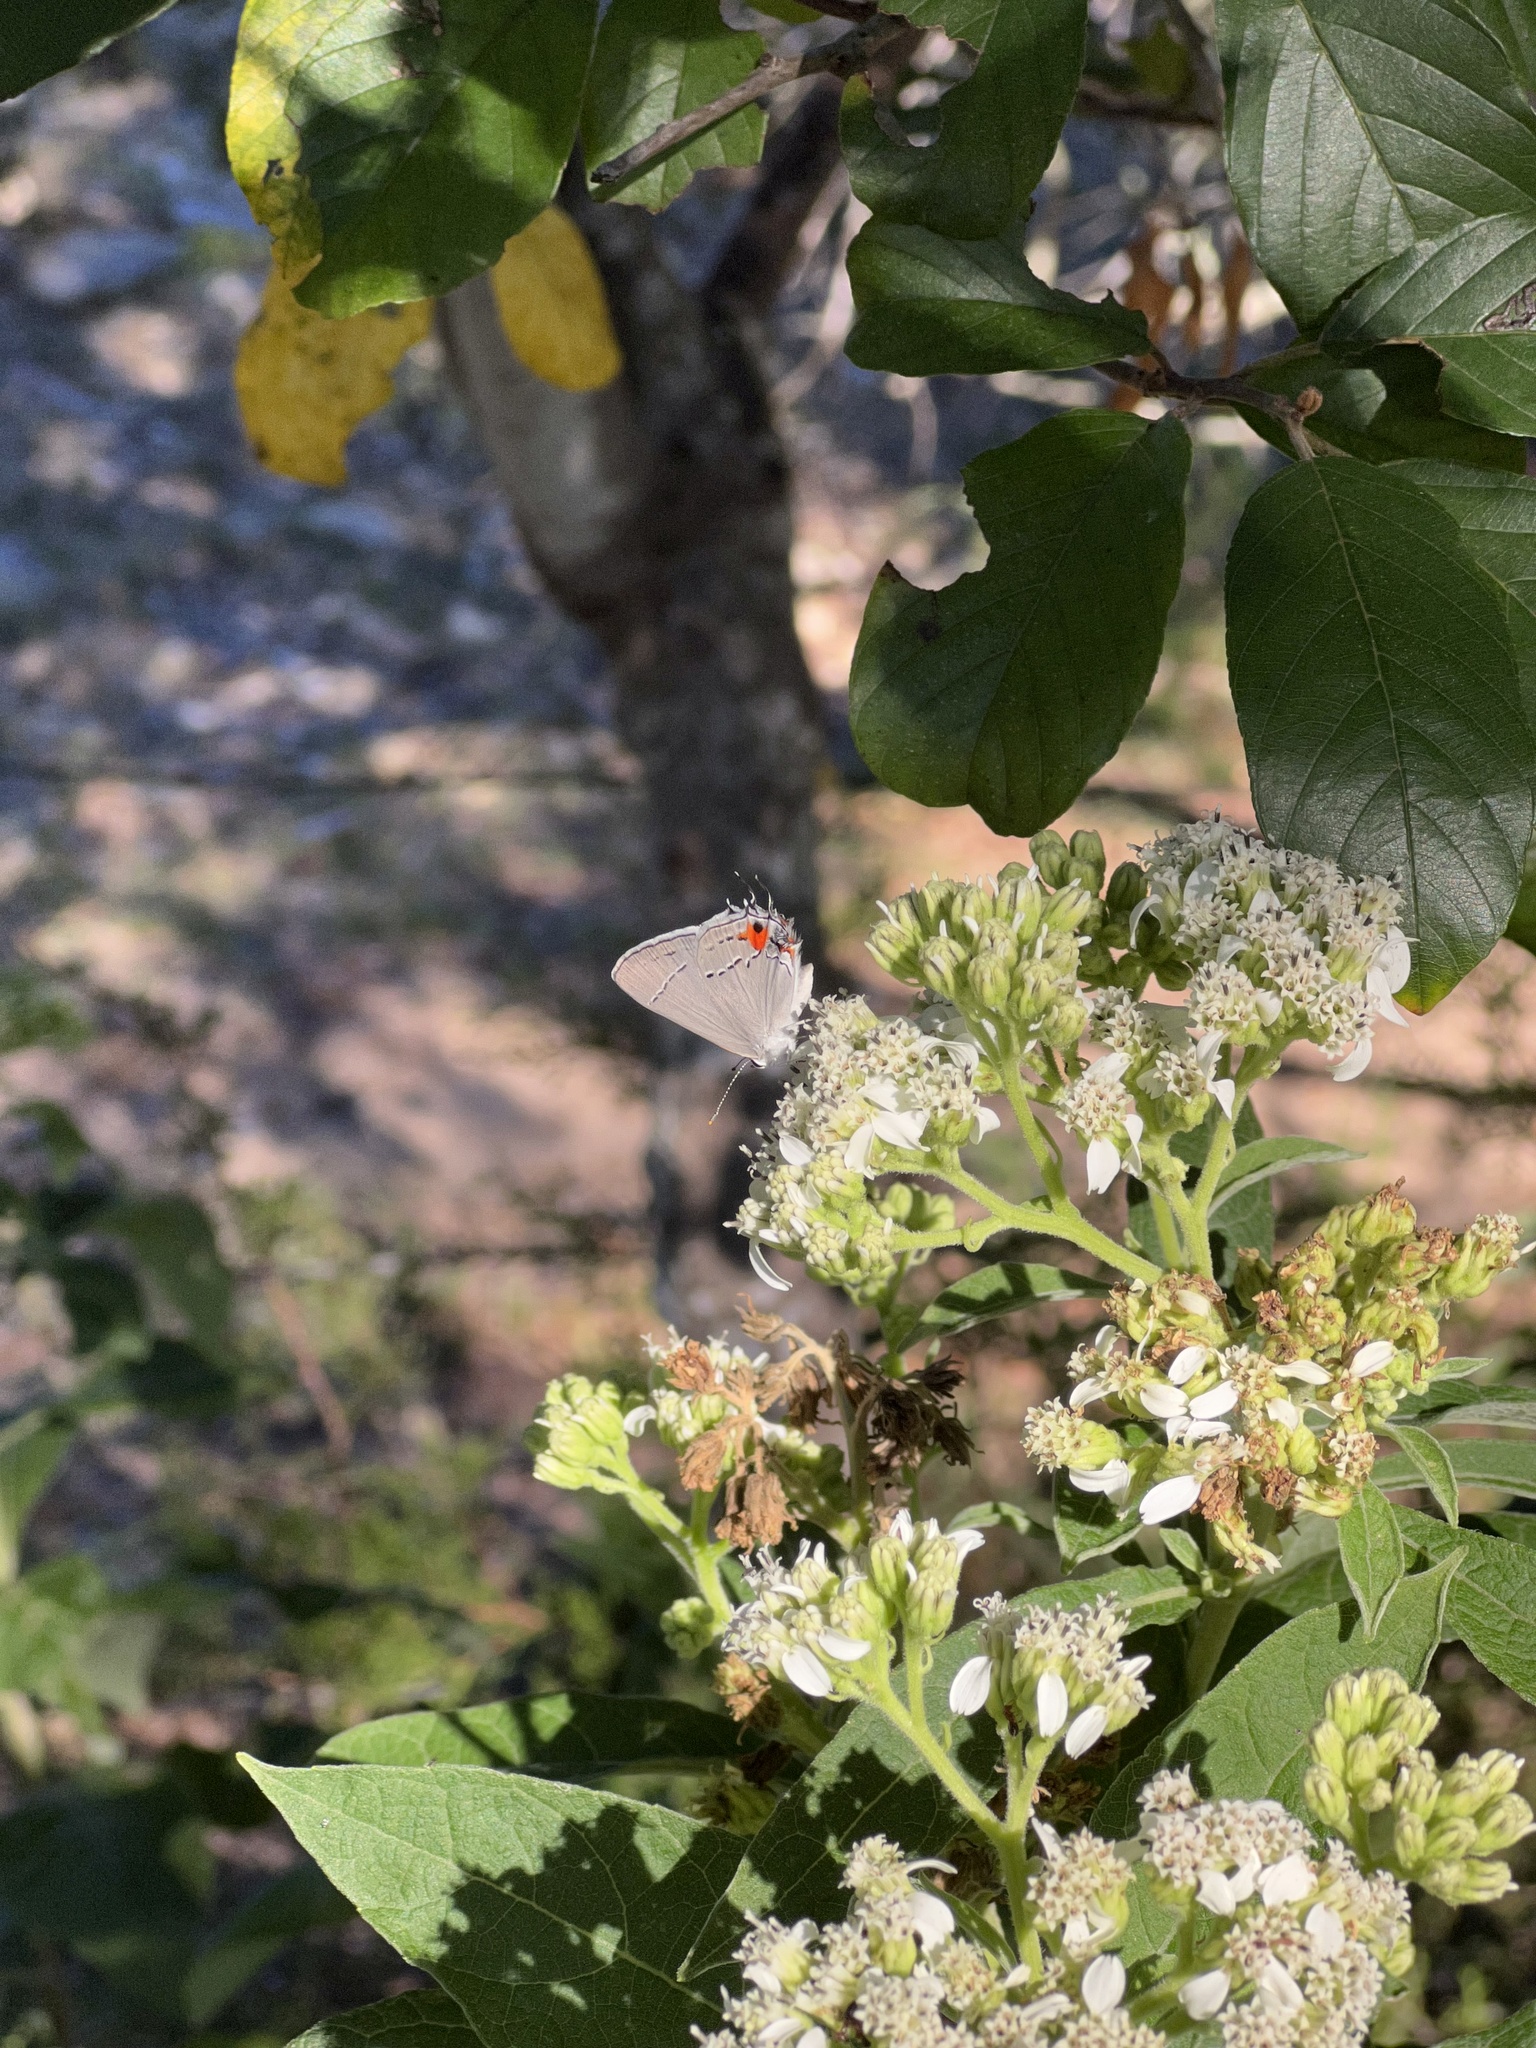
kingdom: Animalia
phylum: Arthropoda
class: Insecta
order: Lepidoptera
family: Lycaenidae
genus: Strymon
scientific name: Strymon melinus
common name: Gray hairstreak
